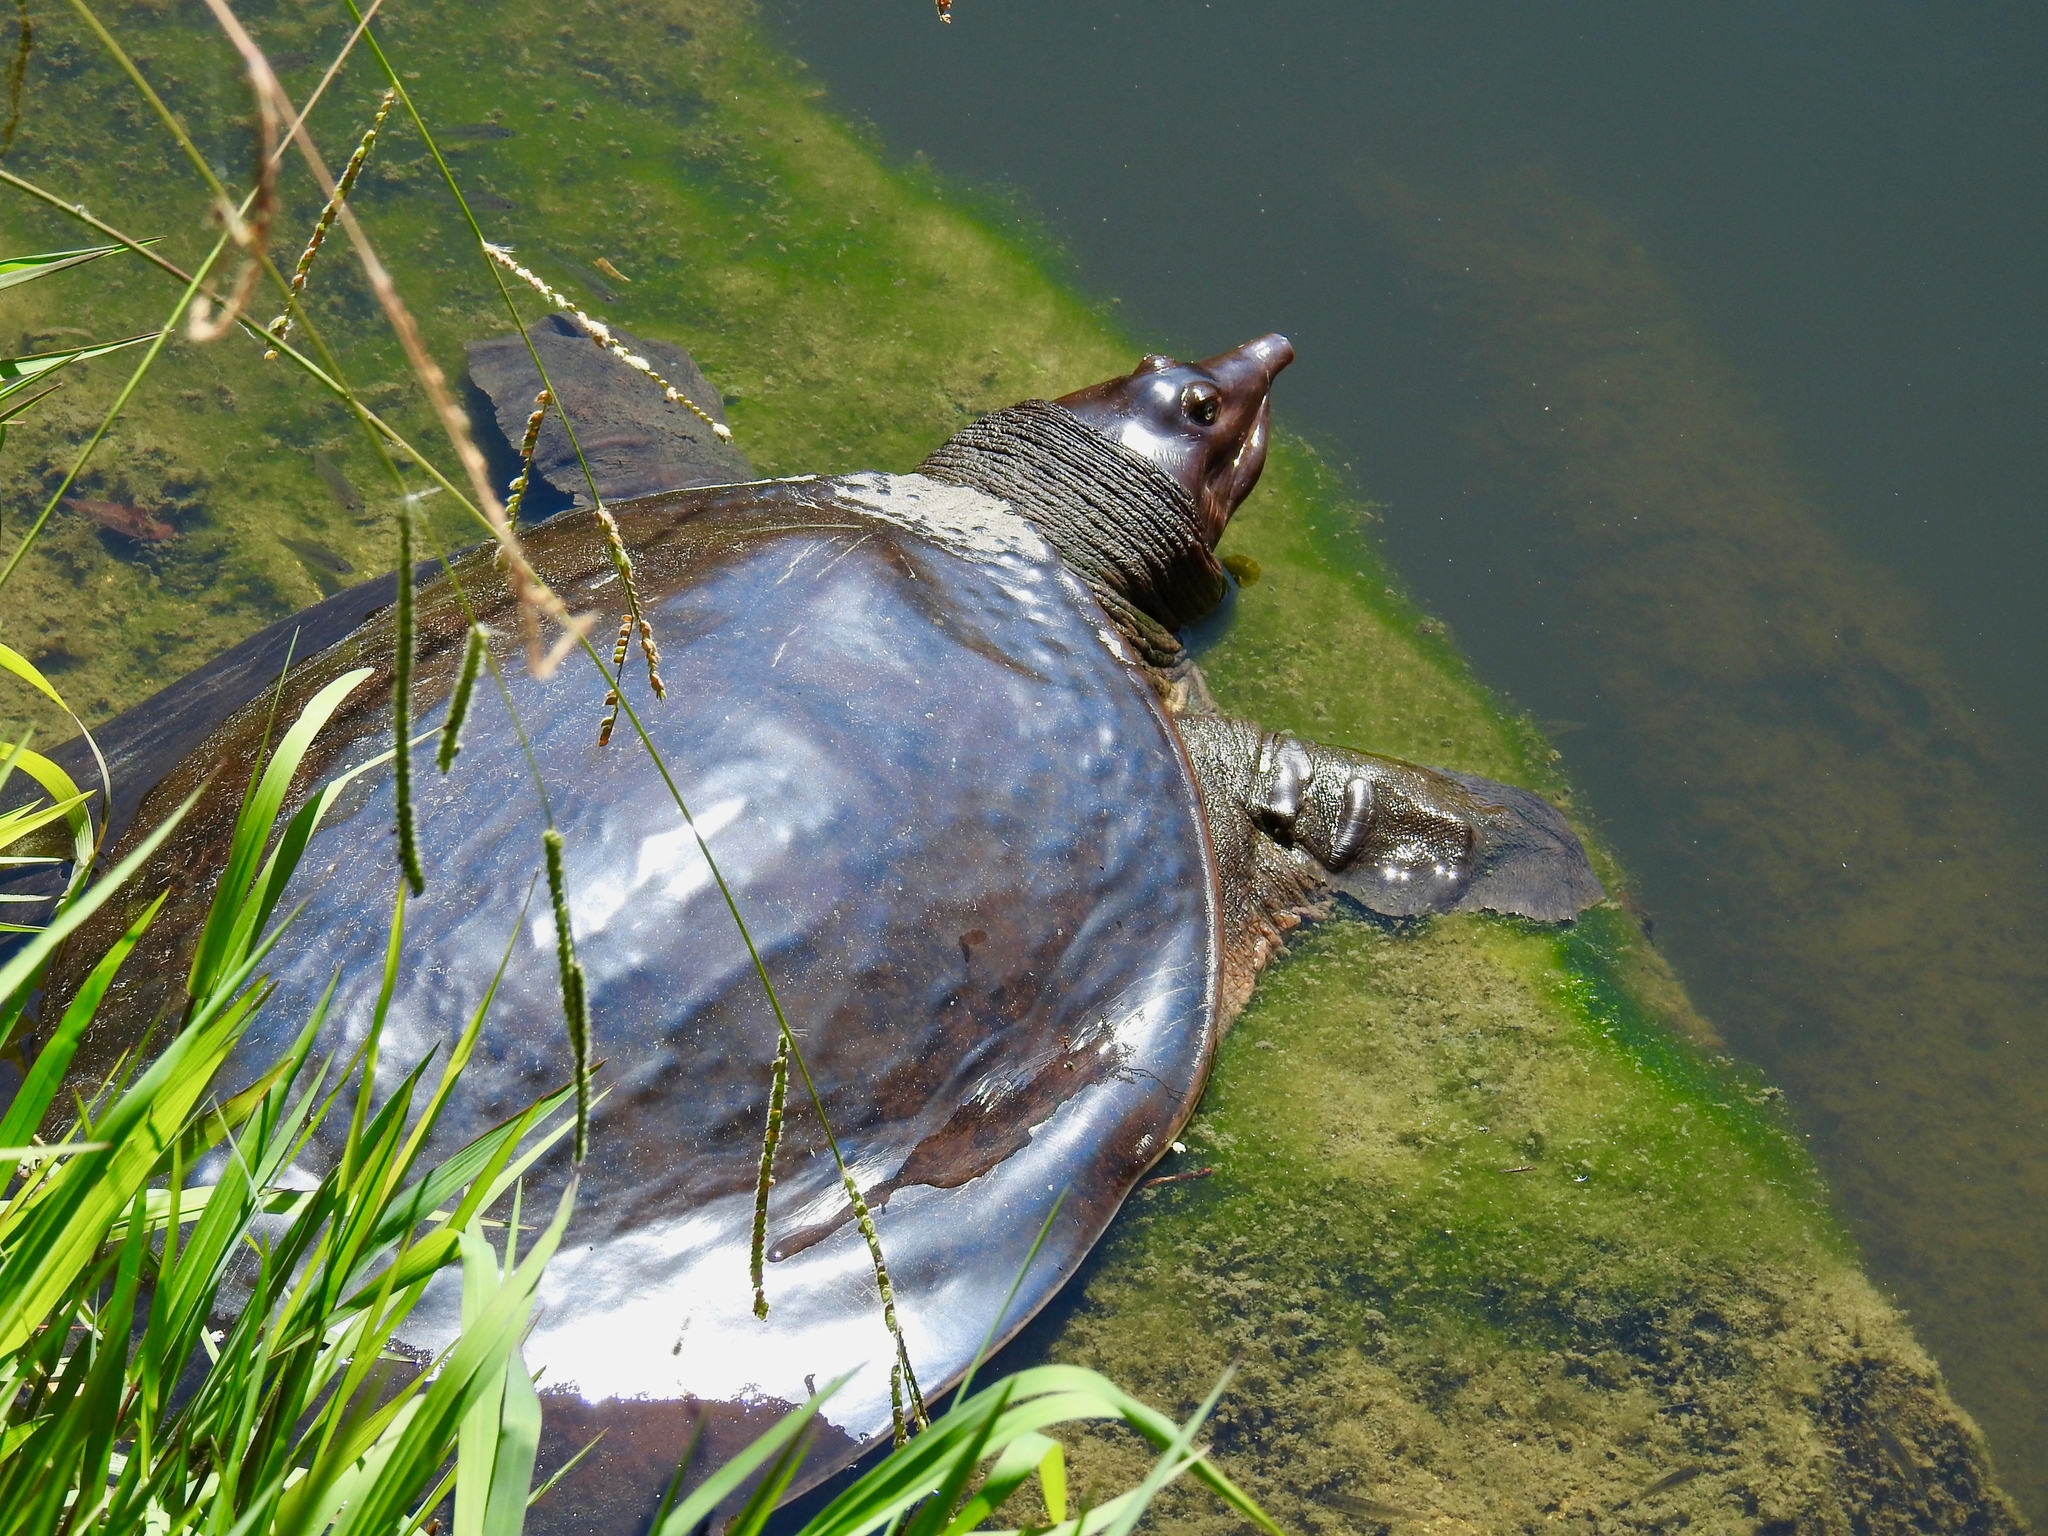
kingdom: Animalia
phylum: Chordata
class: Testudines
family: Trionychidae
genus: Apalone
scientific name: Apalone ferox
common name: Florida softshell turtle
